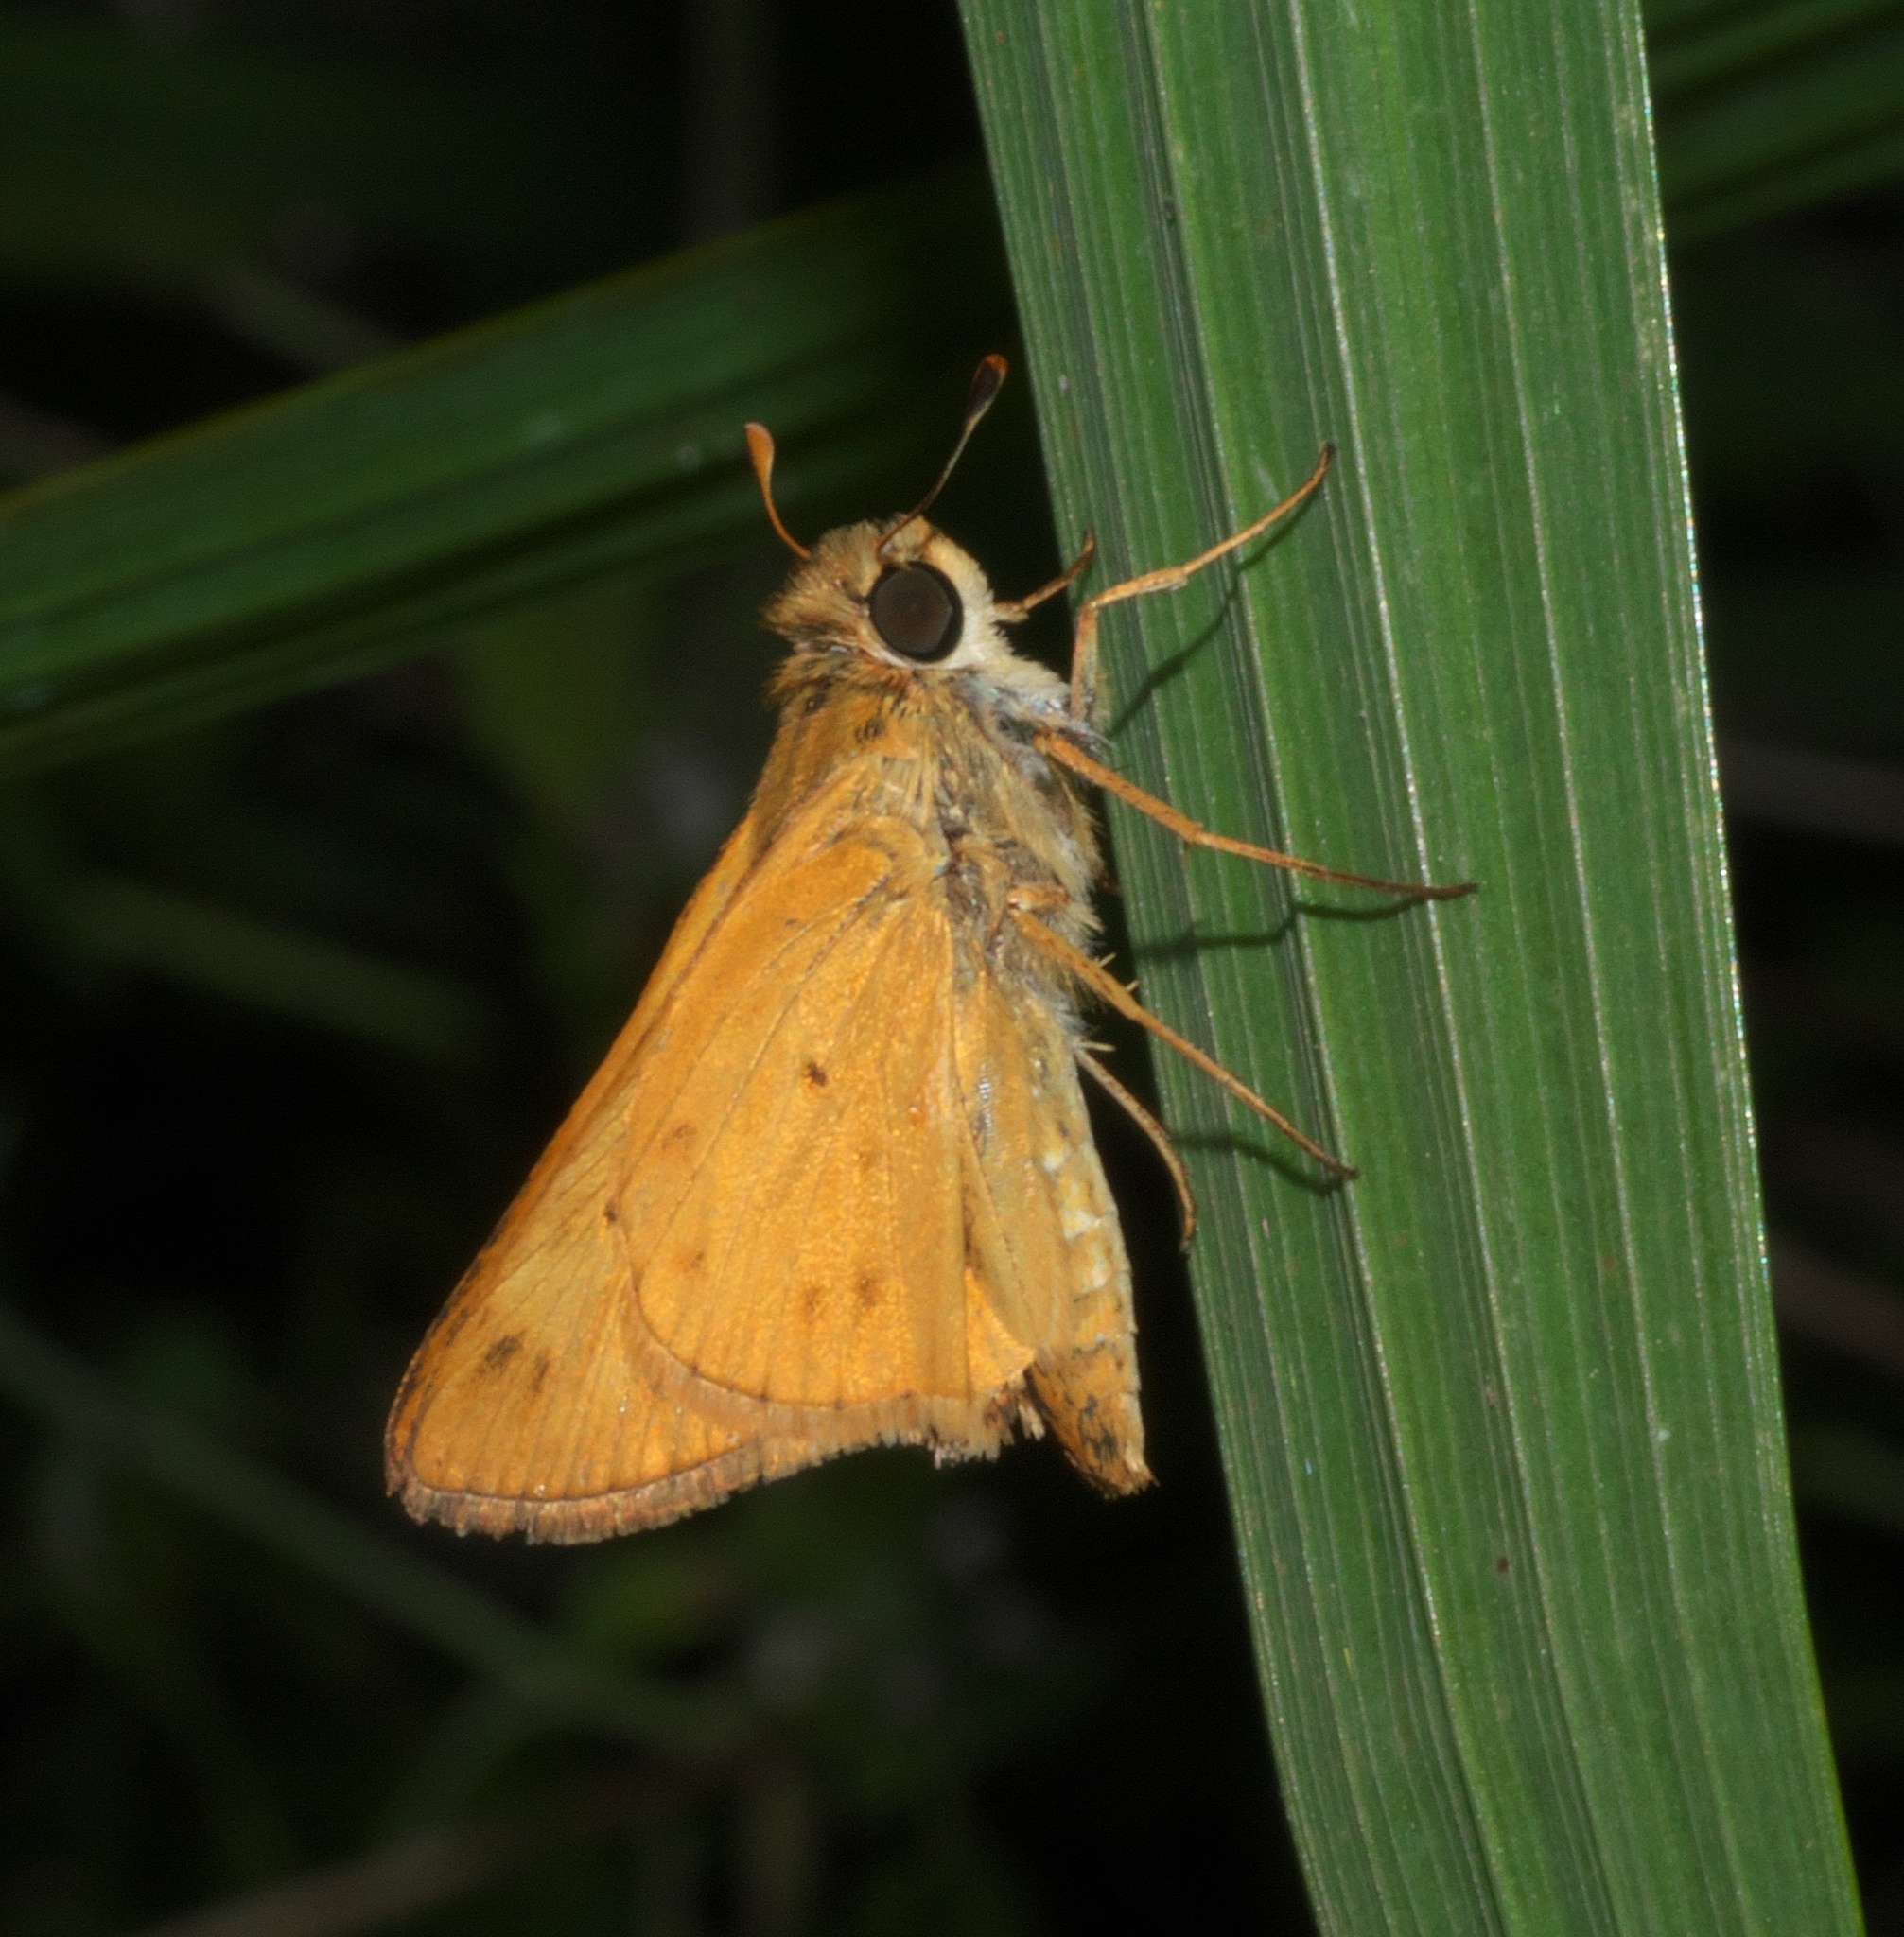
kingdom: Animalia
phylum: Arthropoda
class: Insecta
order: Lepidoptera
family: Hesperiidae
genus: Hylephila
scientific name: Hylephila phyleus
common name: Fiery skipper
